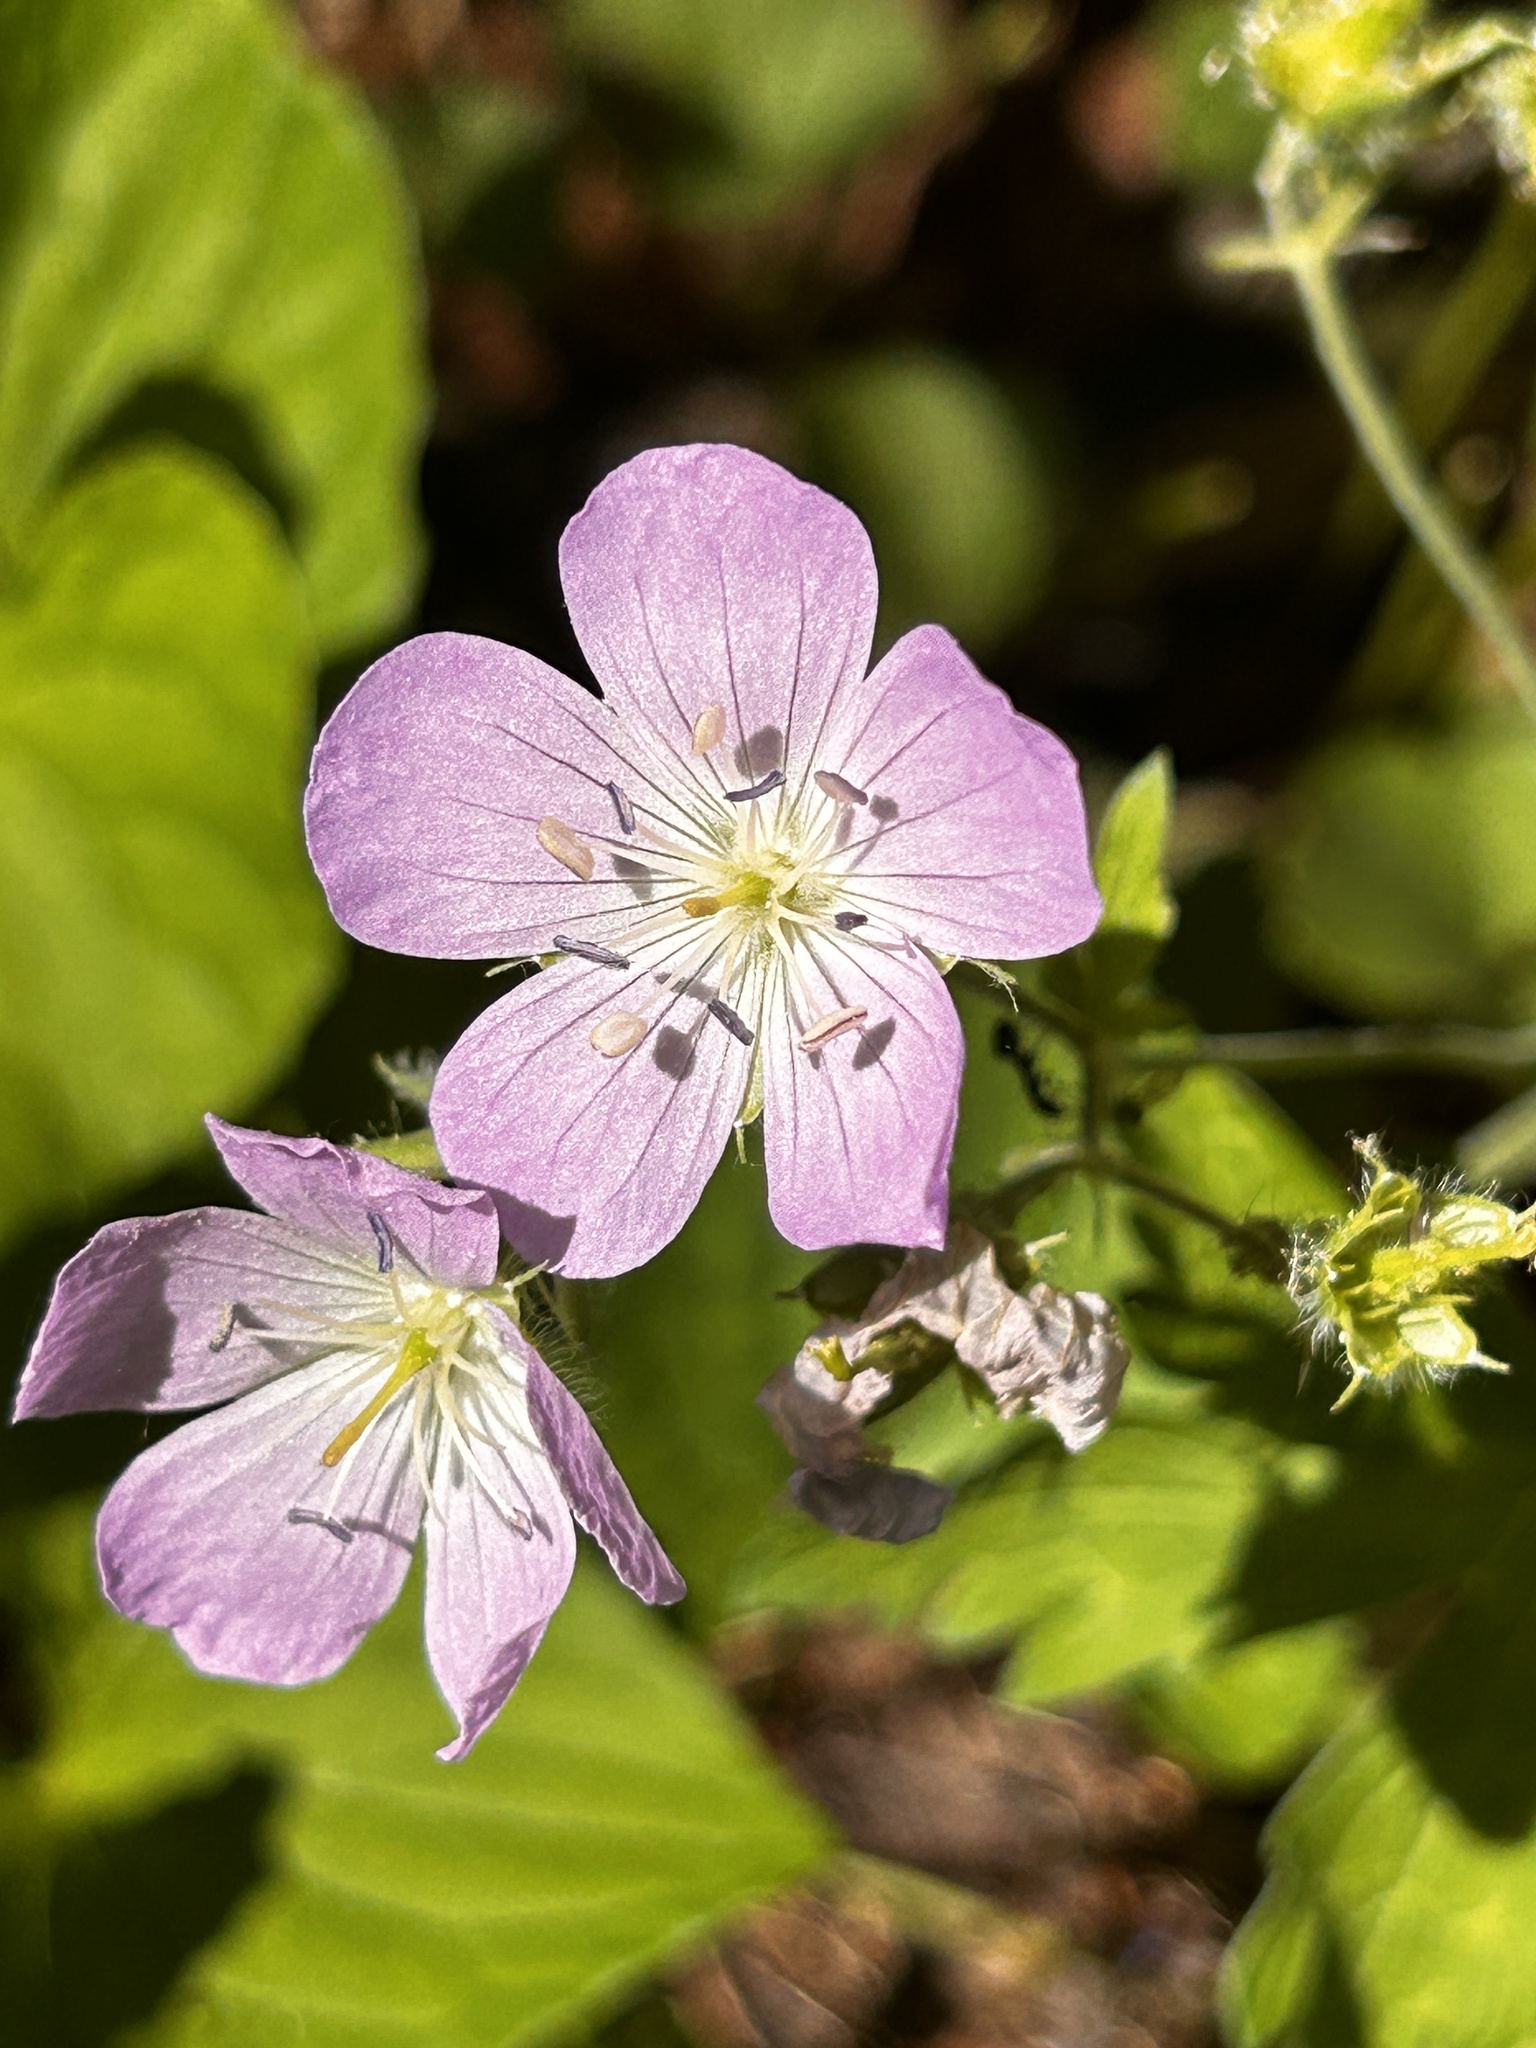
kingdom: Plantae
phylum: Tracheophyta
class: Magnoliopsida
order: Geraniales
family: Geraniaceae
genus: Geranium
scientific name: Geranium maculatum
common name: Spotted geranium
